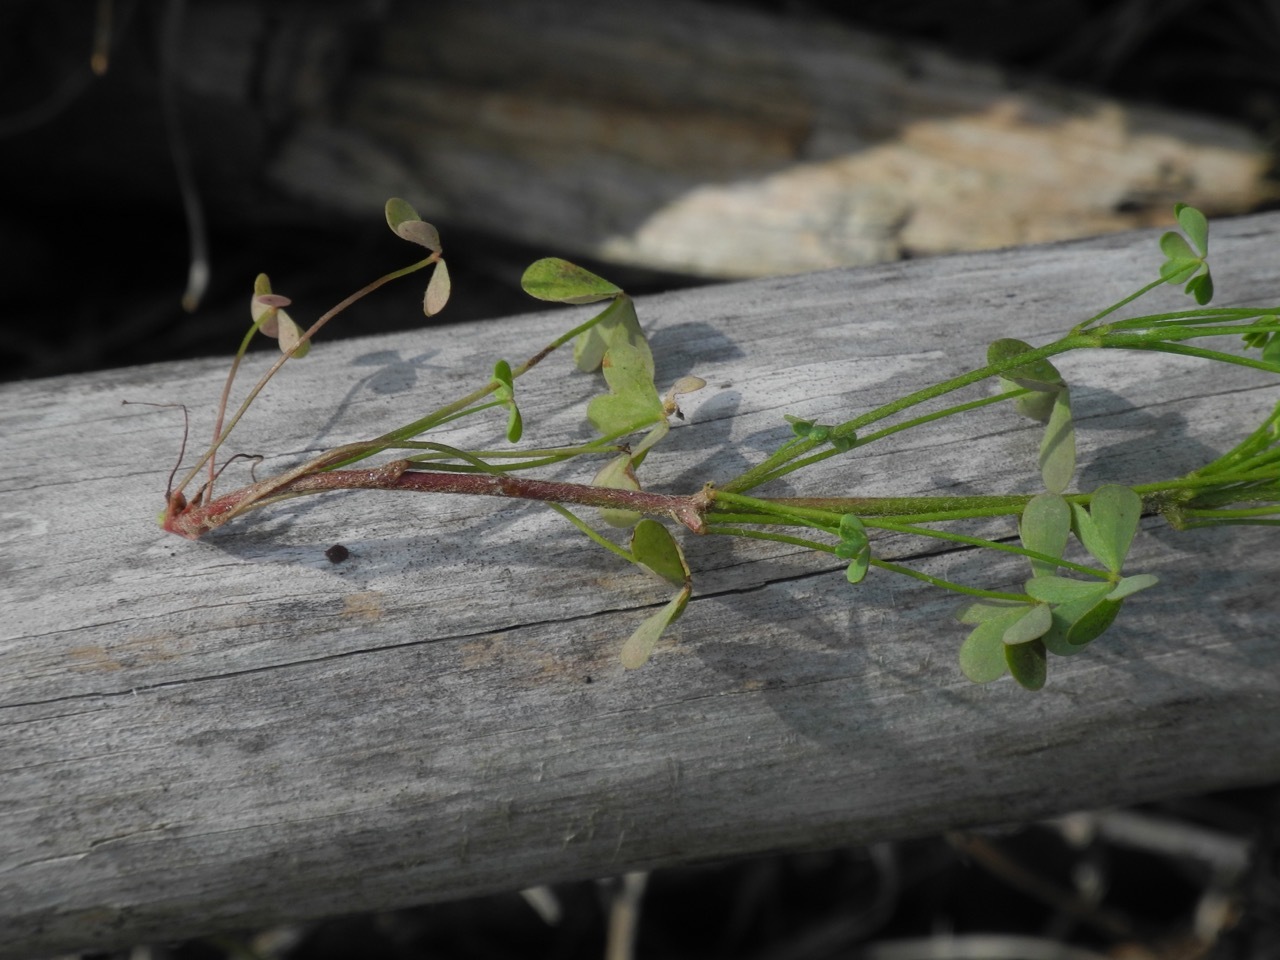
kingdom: Plantae
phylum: Tracheophyta
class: Magnoliopsida
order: Oxalidales
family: Oxalidaceae
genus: Oxalis
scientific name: Oxalis stricta
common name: Upright yellow-sorrel
